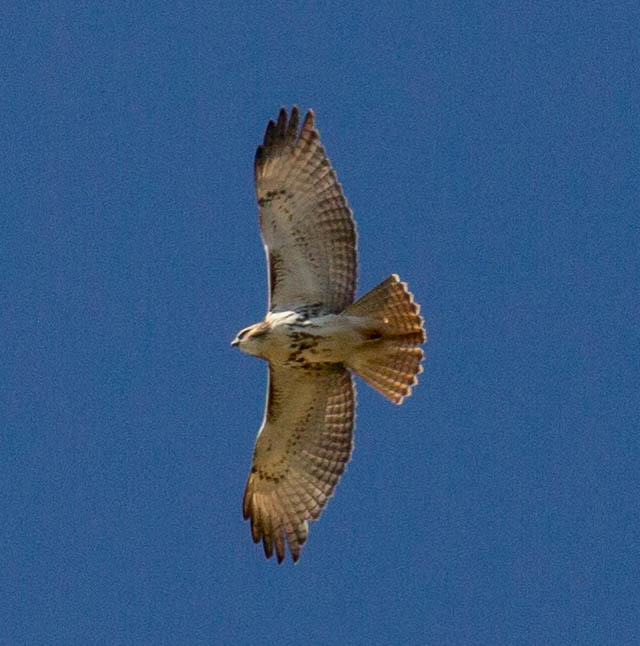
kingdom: Animalia
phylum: Chordata
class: Aves
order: Accipitriformes
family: Accipitridae
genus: Buteo
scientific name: Buteo jamaicensis
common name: Red-tailed hawk
